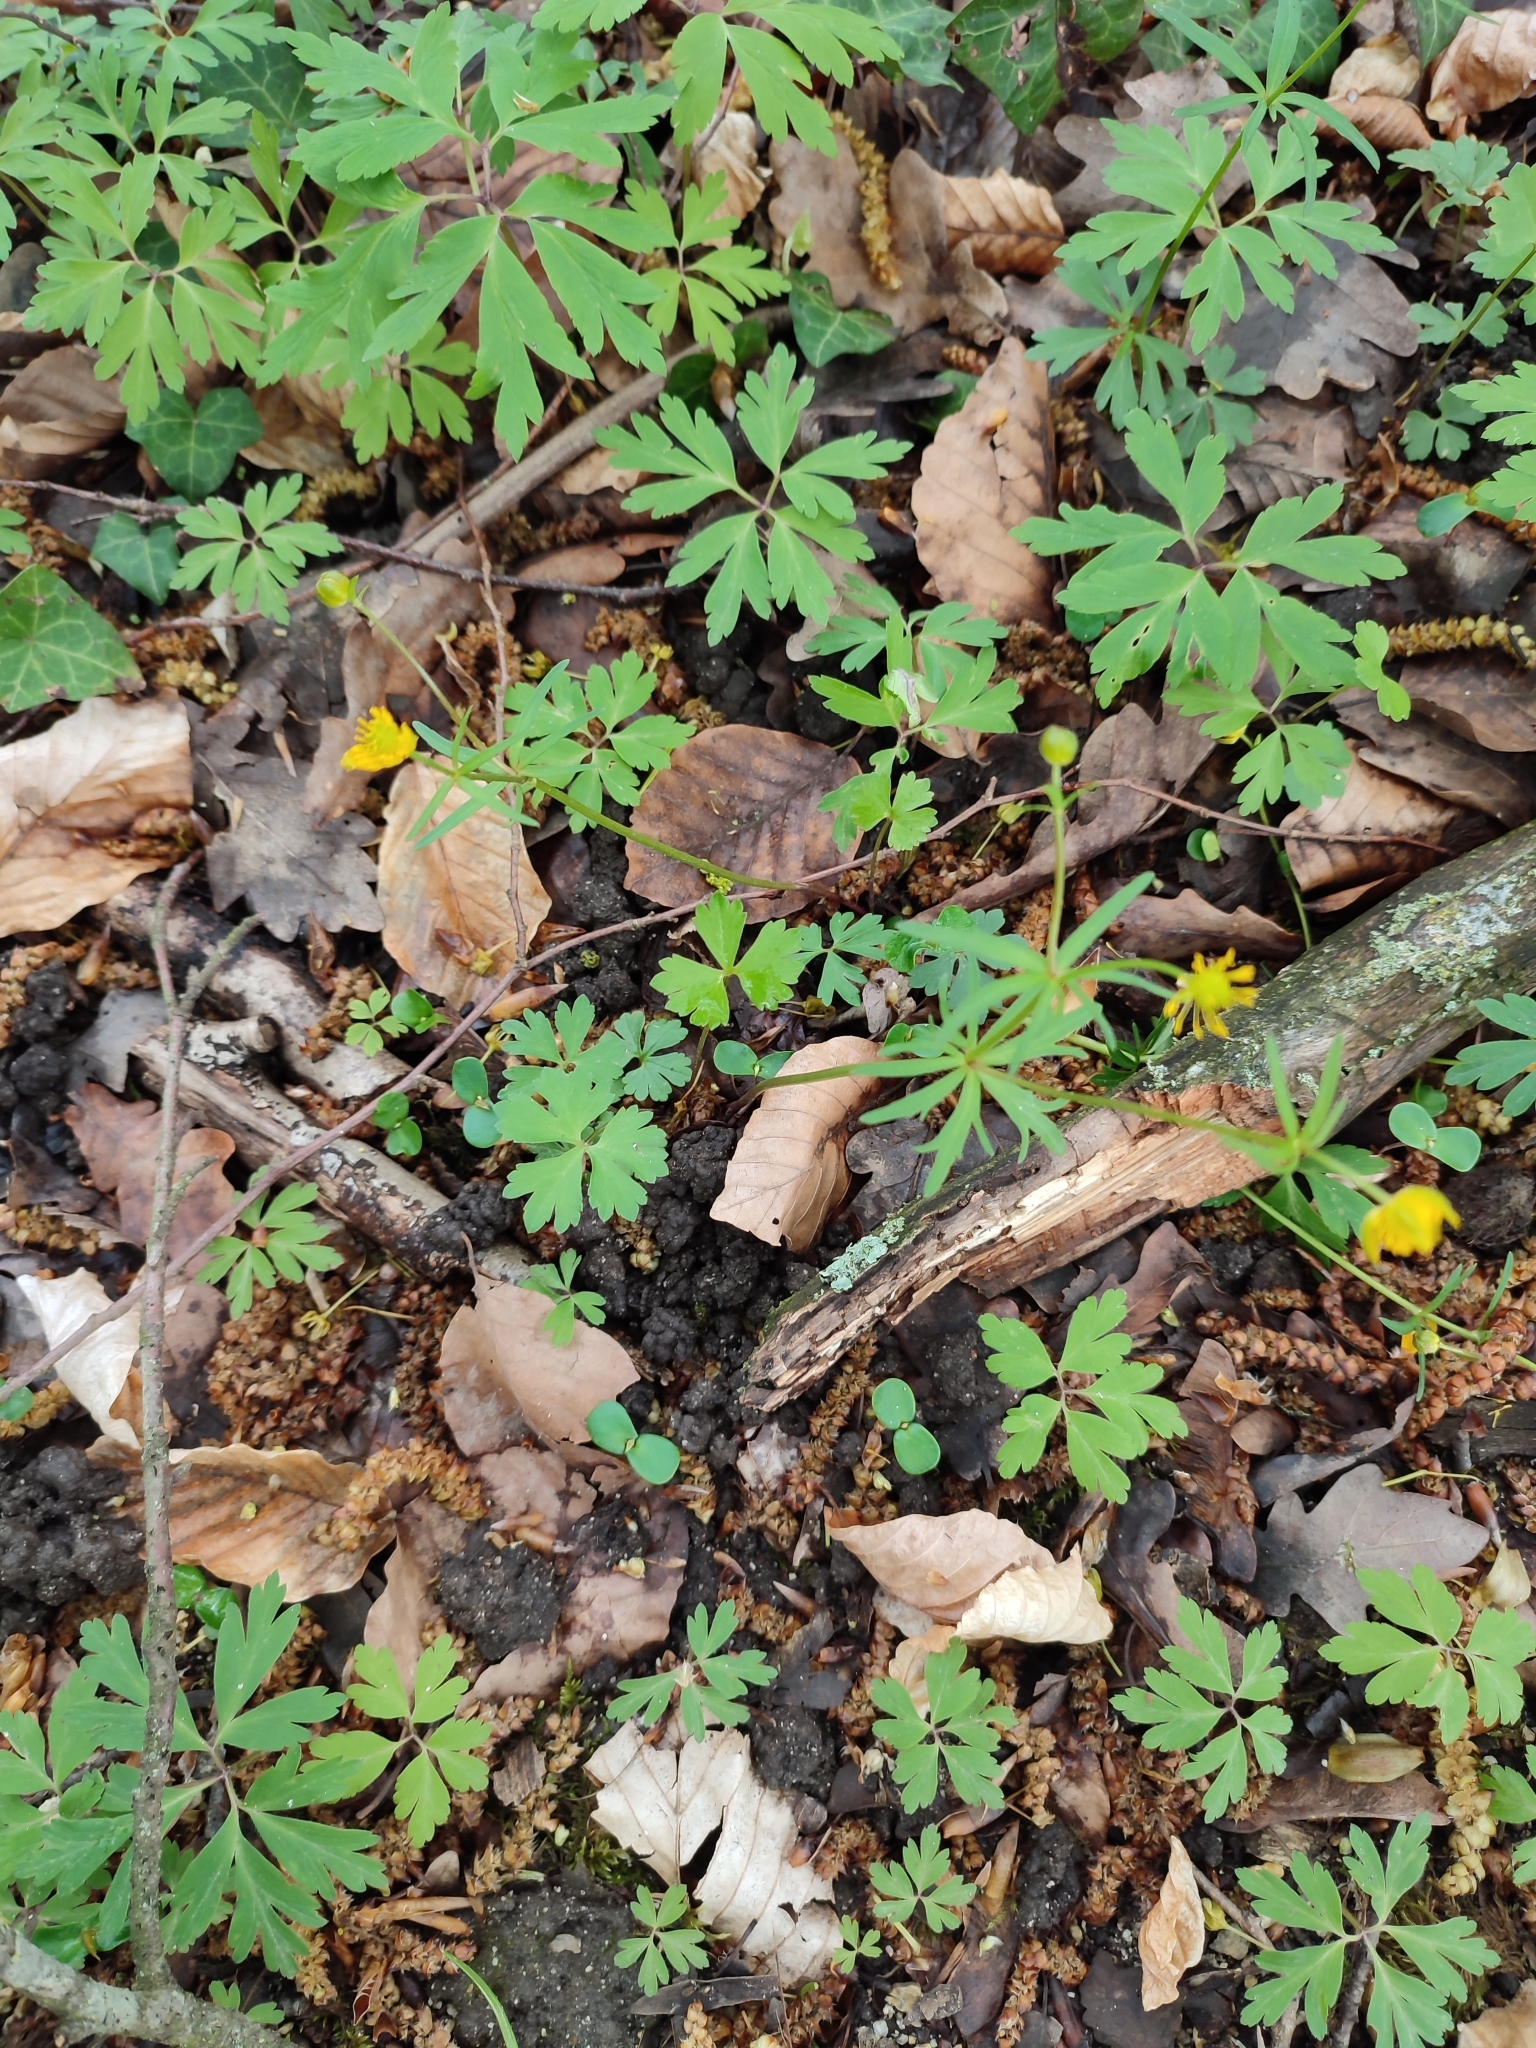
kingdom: Plantae
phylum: Tracheophyta
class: Magnoliopsida
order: Ranunculales
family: Ranunculaceae
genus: Ranunculus
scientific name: Ranunculus auricomus
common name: Goldilocks buttercup
